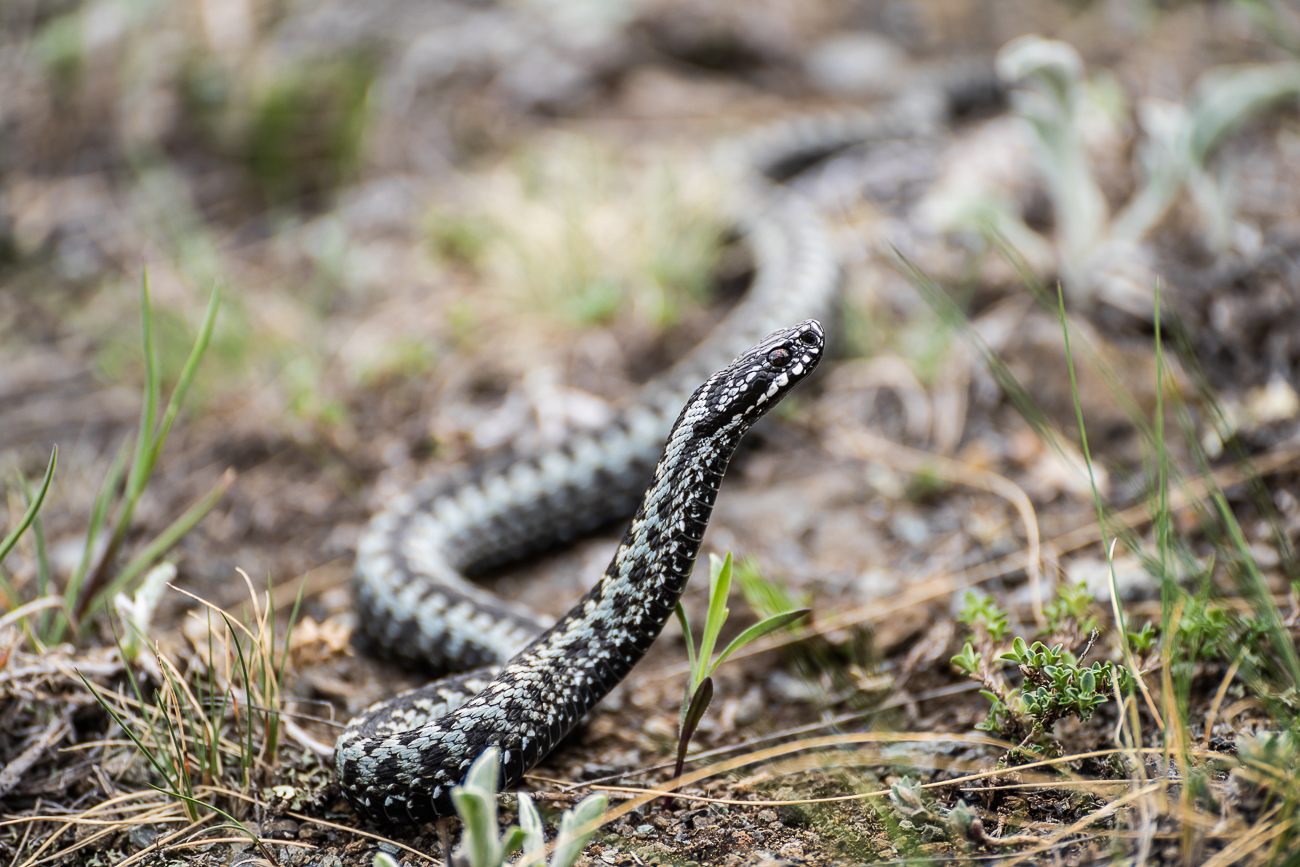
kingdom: Animalia
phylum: Chordata
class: Squamata
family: Viperidae
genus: Vipera
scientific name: Vipera berus
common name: Adder
